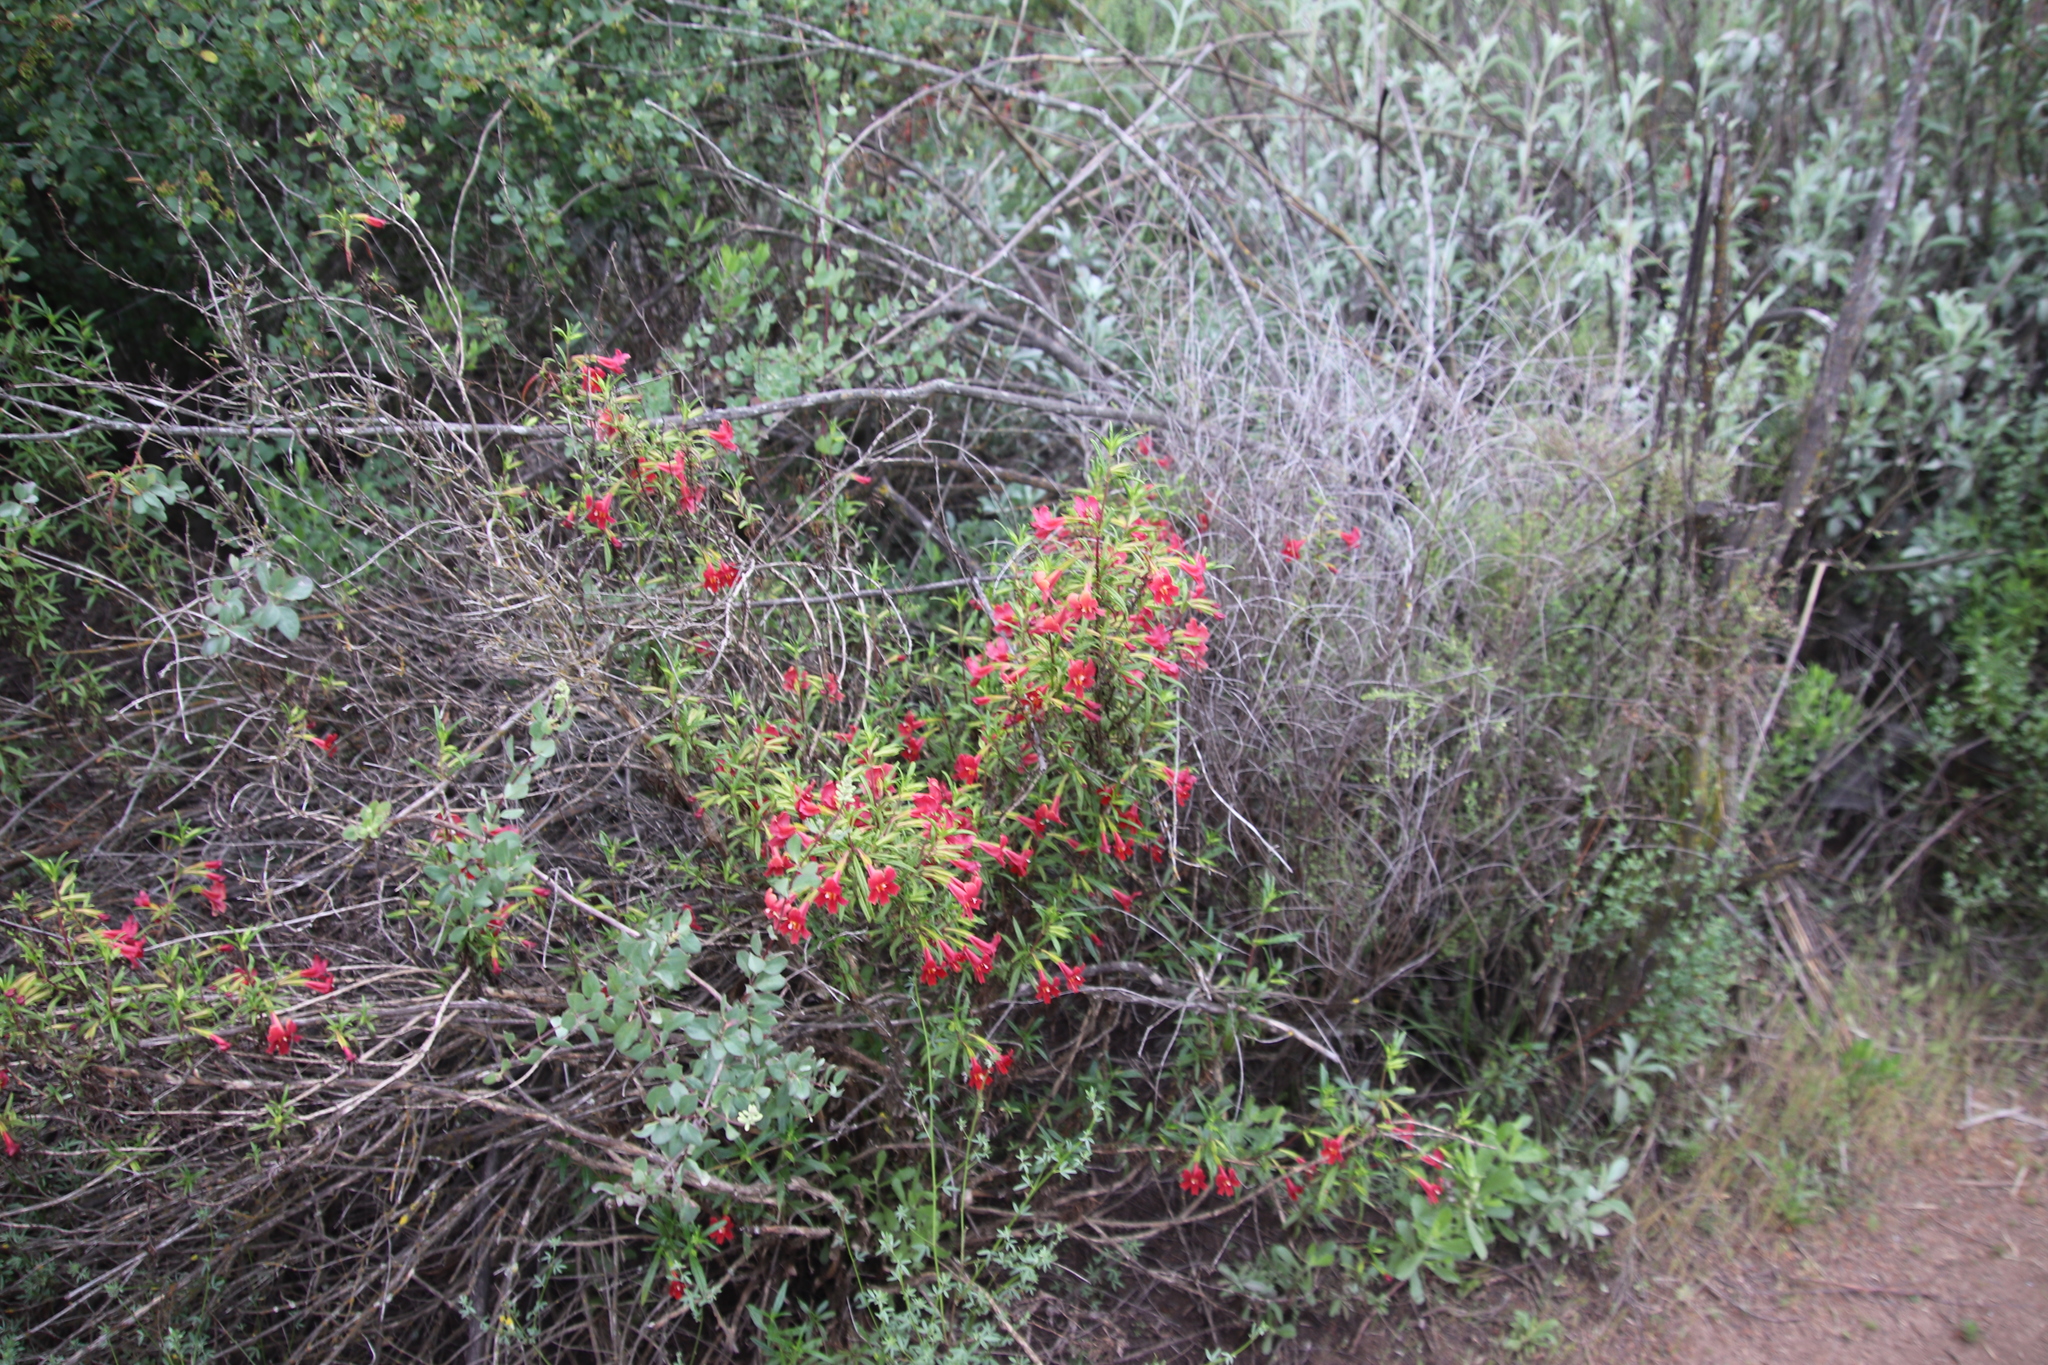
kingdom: Plantae
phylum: Tracheophyta
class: Magnoliopsida
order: Lamiales
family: Phrymaceae
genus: Diplacus
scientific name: Diplacus puniceus
